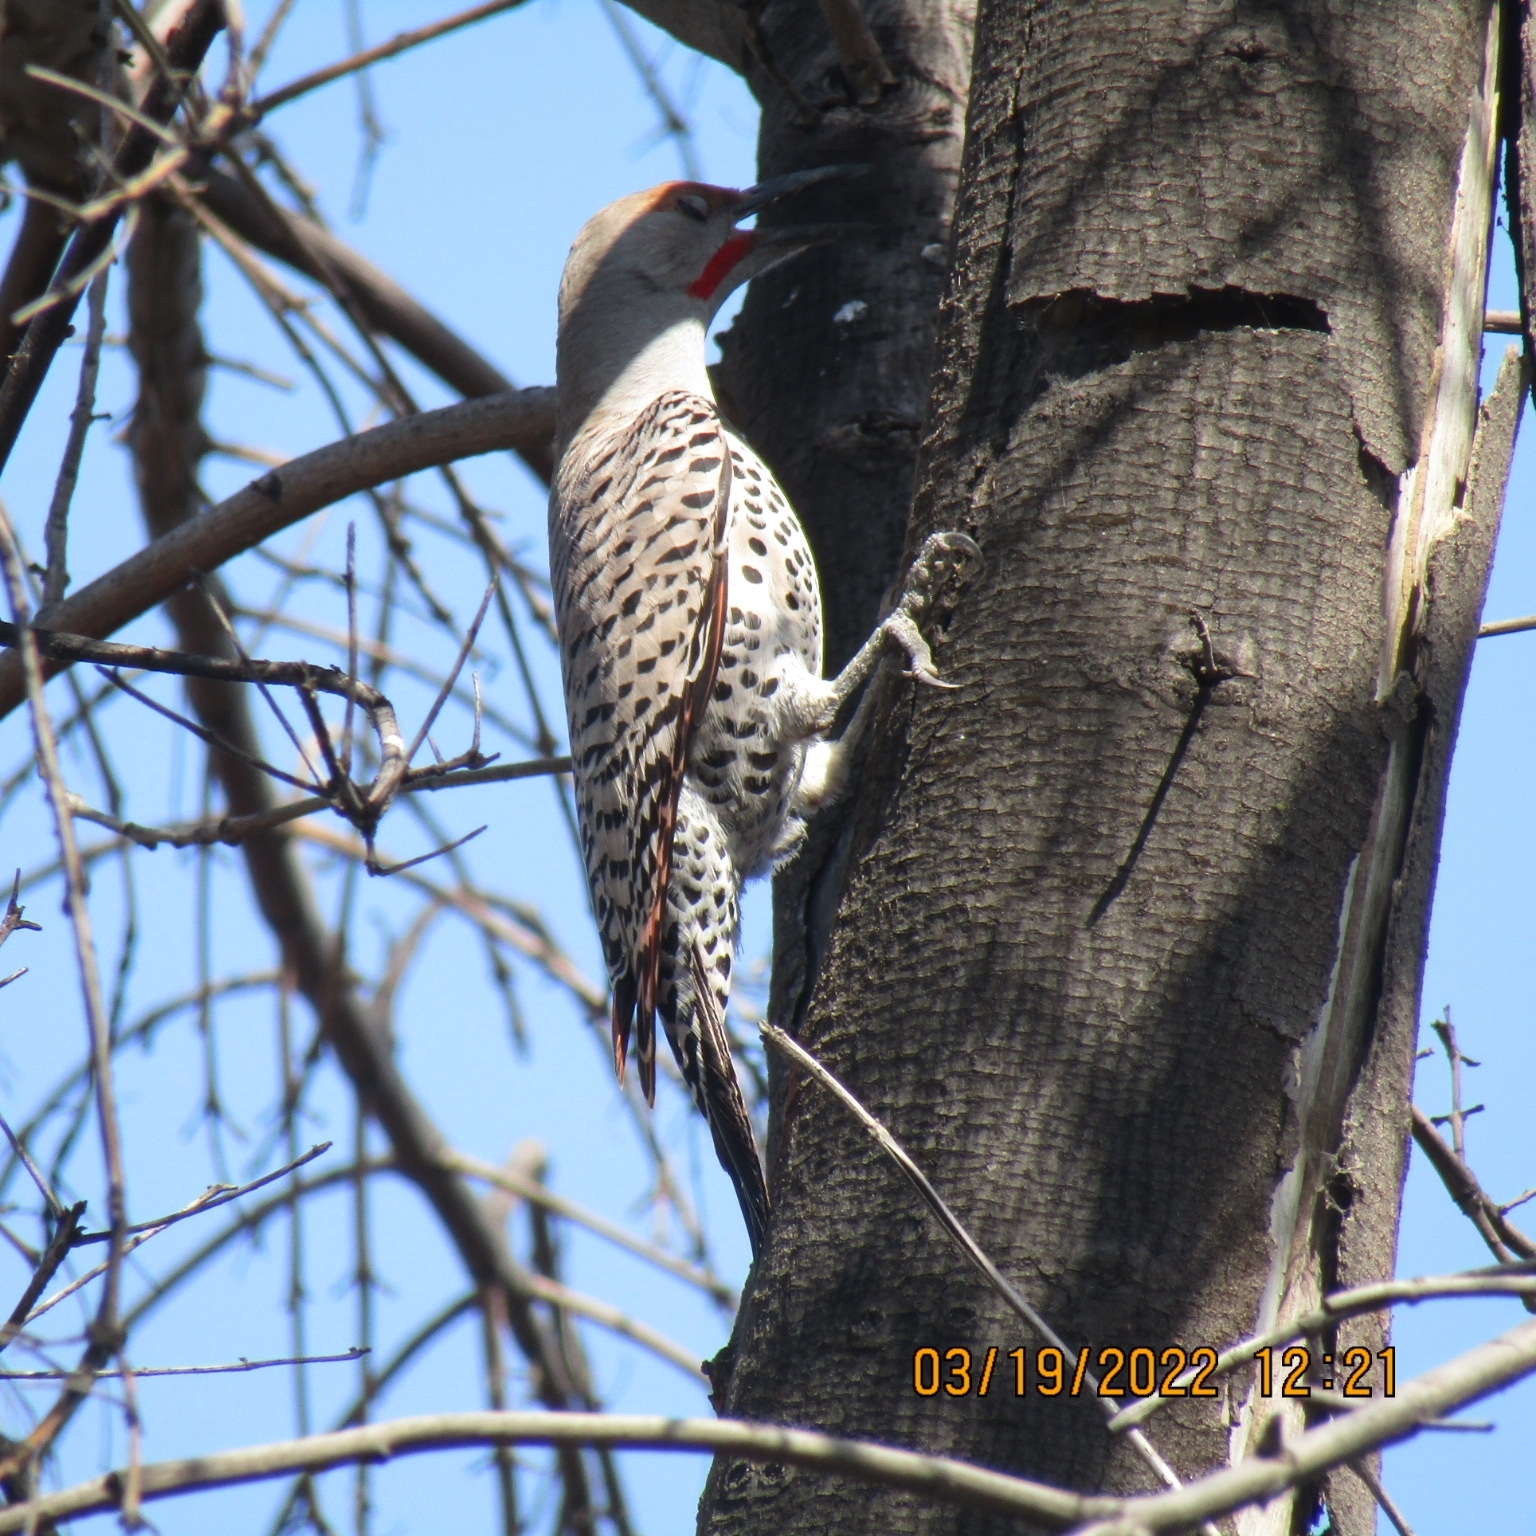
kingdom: Animalia
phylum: Chordata
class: Aves
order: Piciformes
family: Picidae
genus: Colaptes
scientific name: Colaptes auratus
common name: Northern flicker
